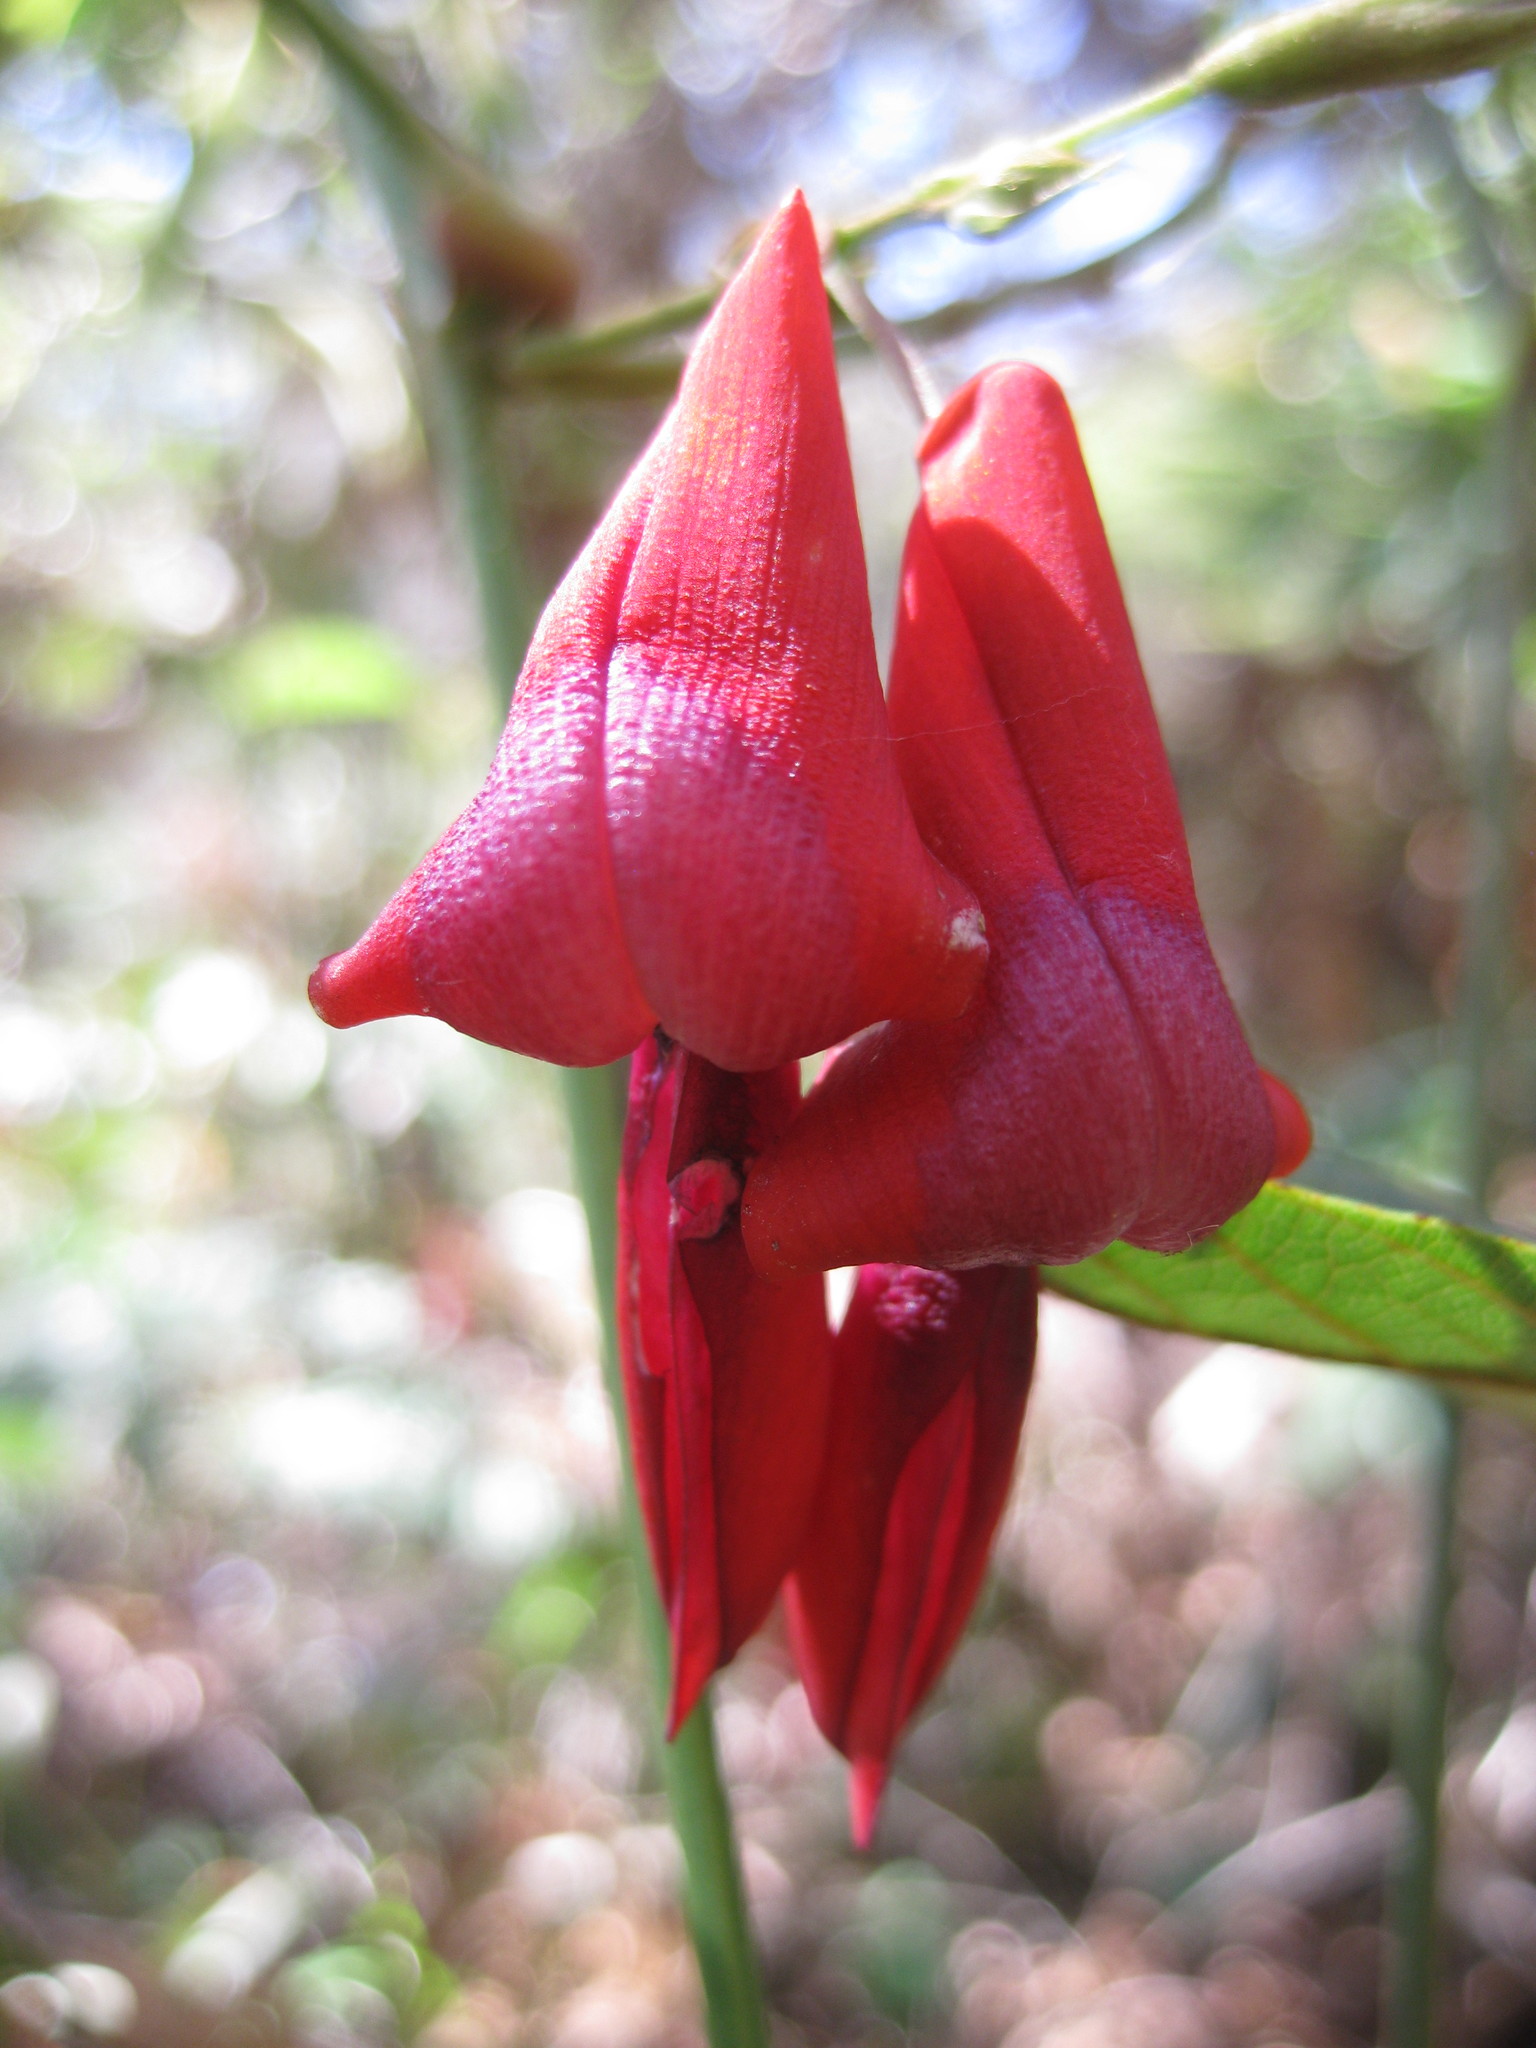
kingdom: Plantae
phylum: Tracheophyta
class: Magnoliopsida
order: Fabales
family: Fabaceae
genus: Kennedia
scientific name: Kennedia rubicunda
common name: Red kennedy-pea
